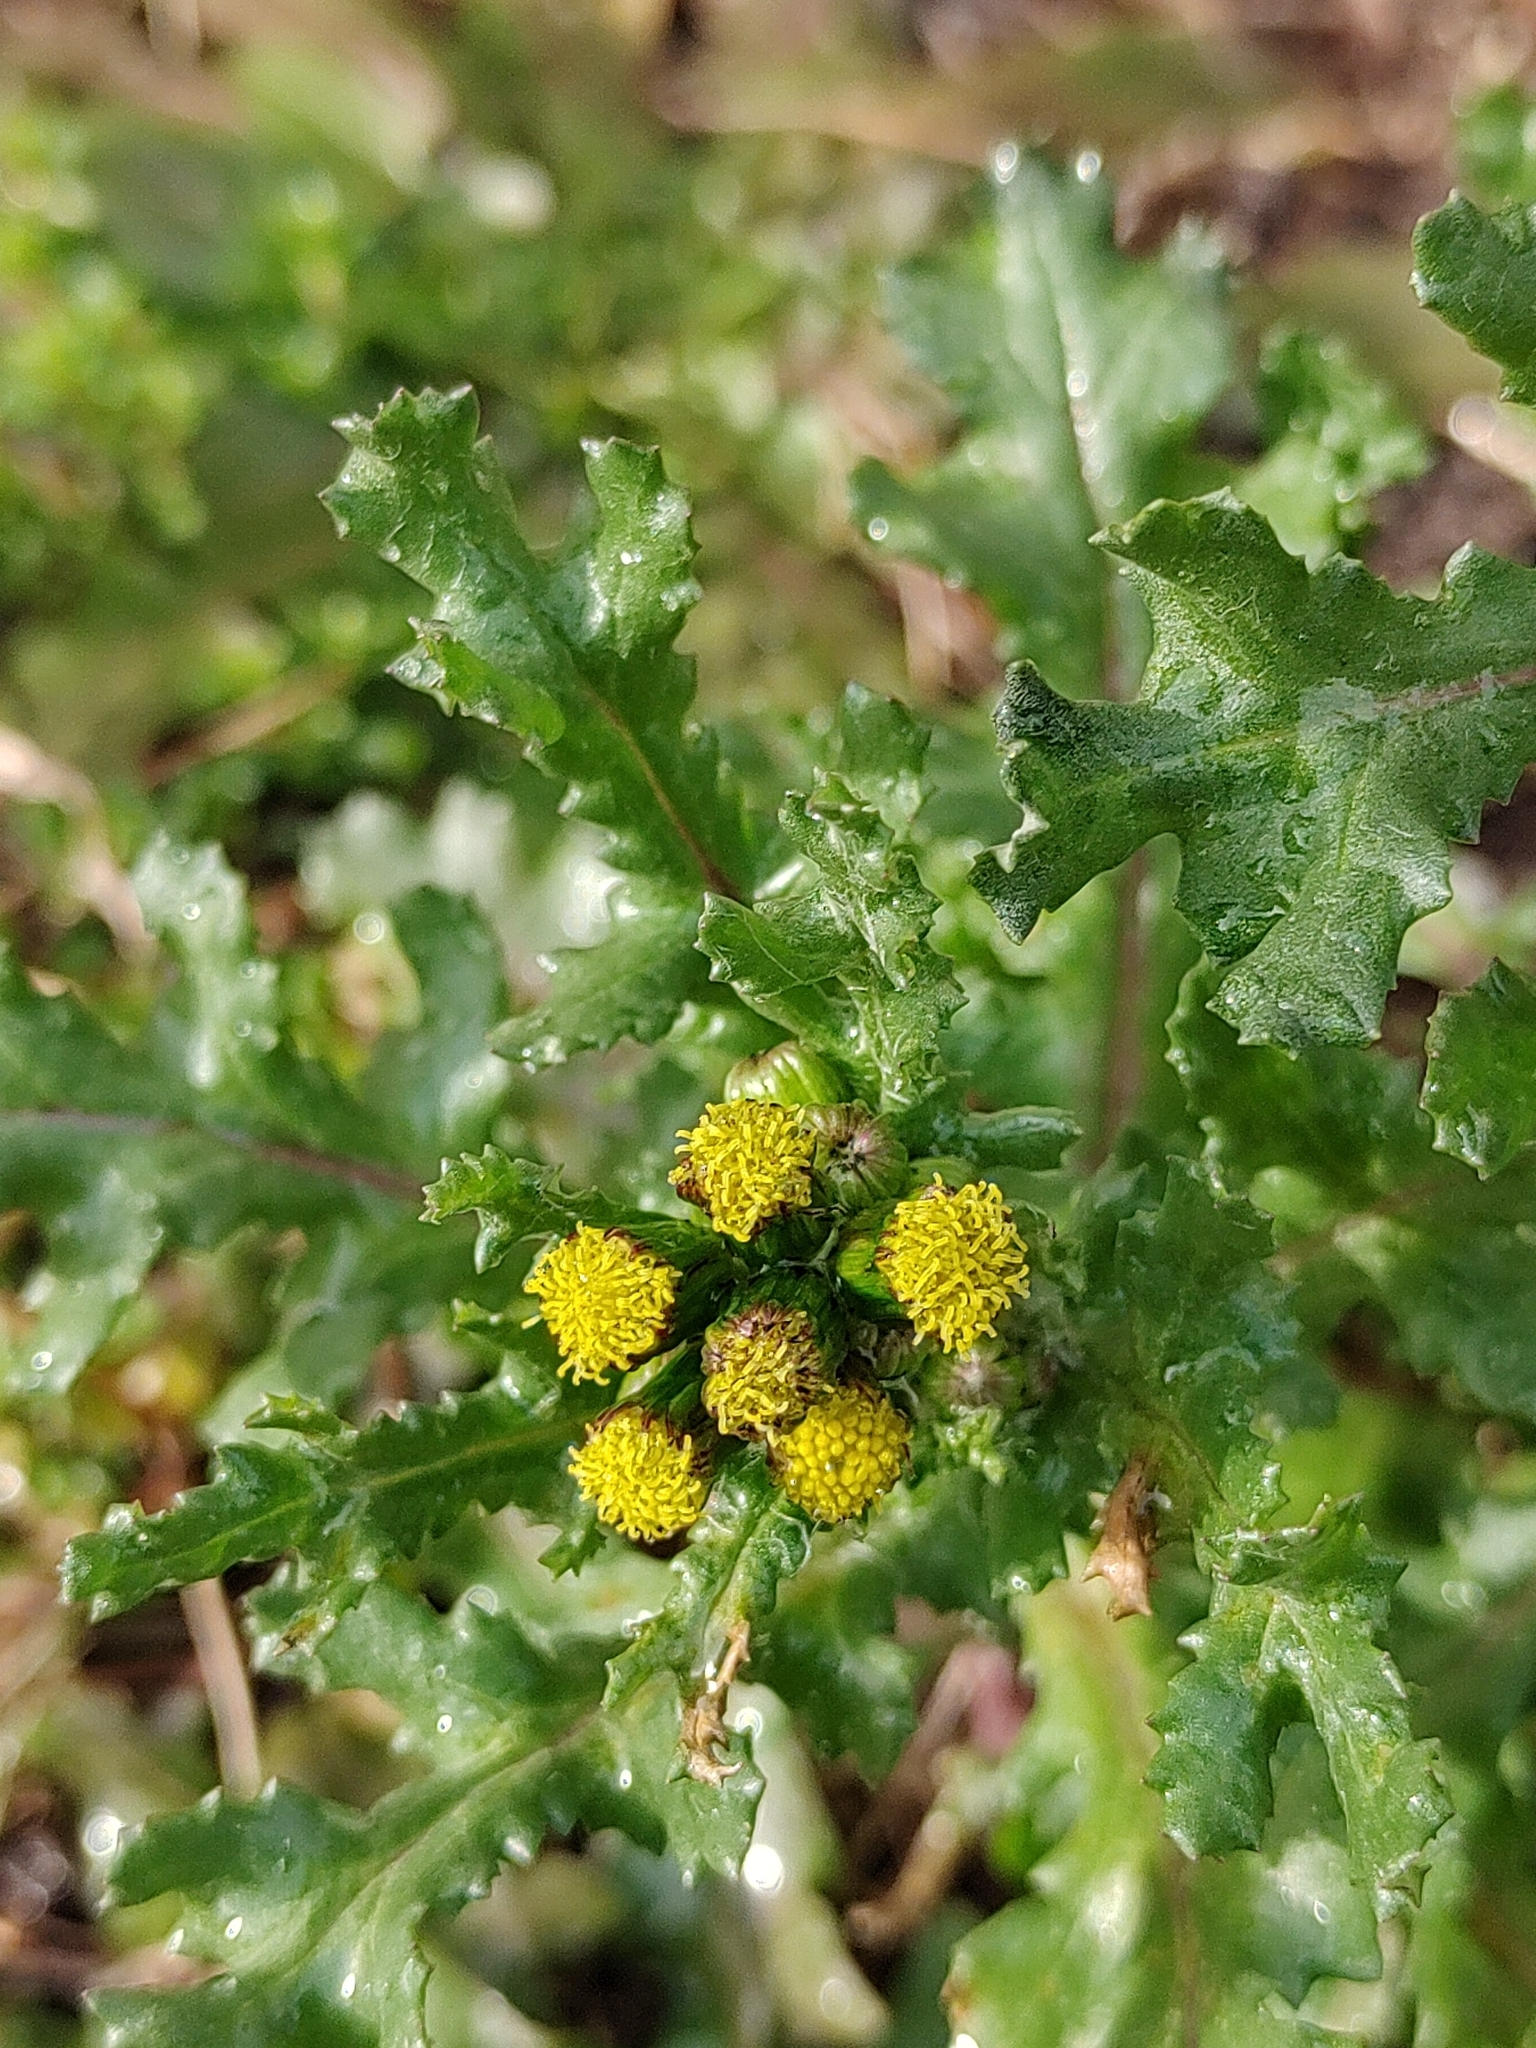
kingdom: Plantae
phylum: Tracheophyta
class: Magnoliopsida
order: Asterales
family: Asteraceae
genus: Senecio
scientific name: Senecio vulgaris
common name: Old-man-in-the-spring
